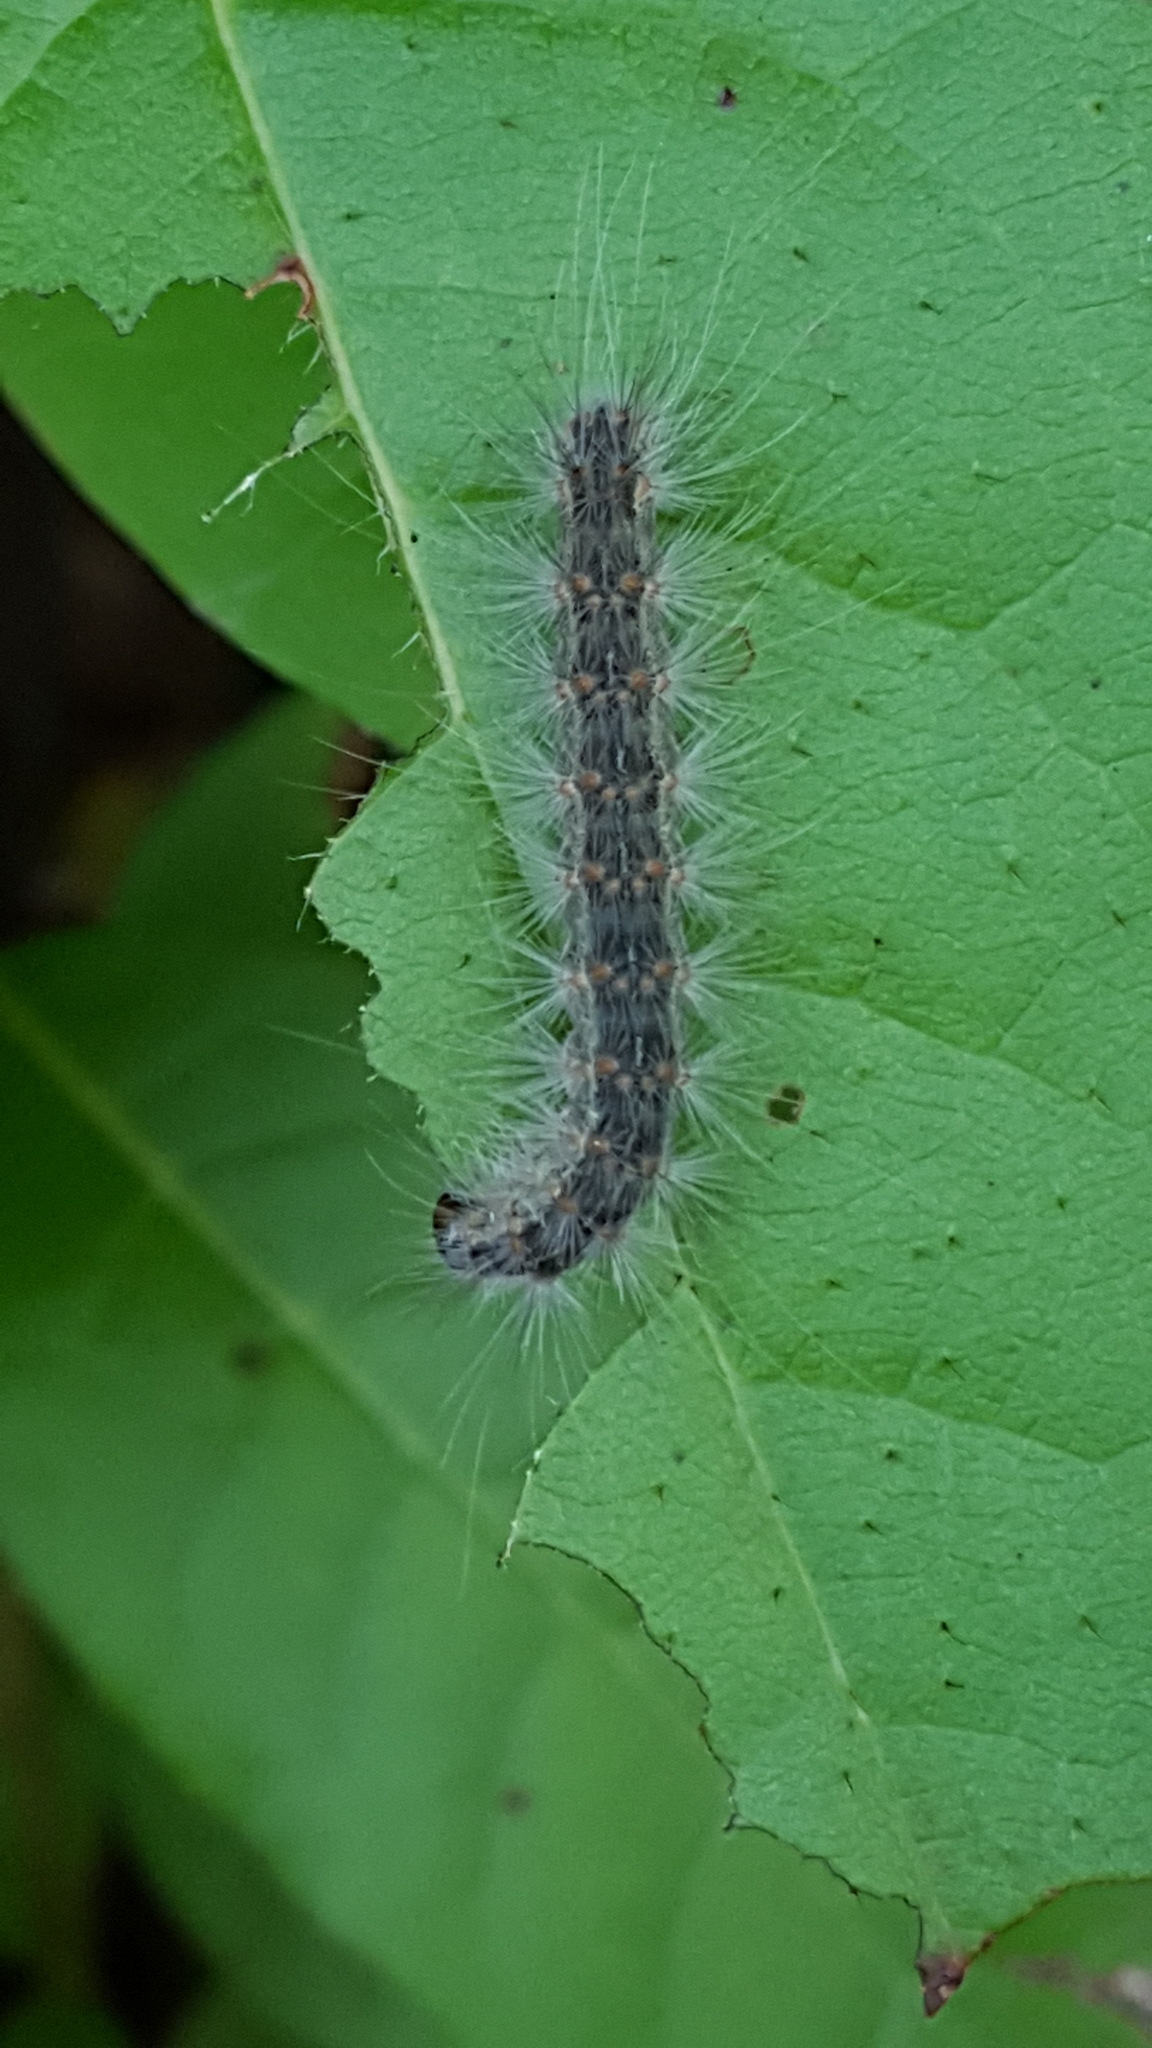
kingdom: Animalia
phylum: Arthropoda
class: Insecta
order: Lepidoptera
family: Erebidae
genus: Hyphantria
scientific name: Hyphantria cunea
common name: American white moth
